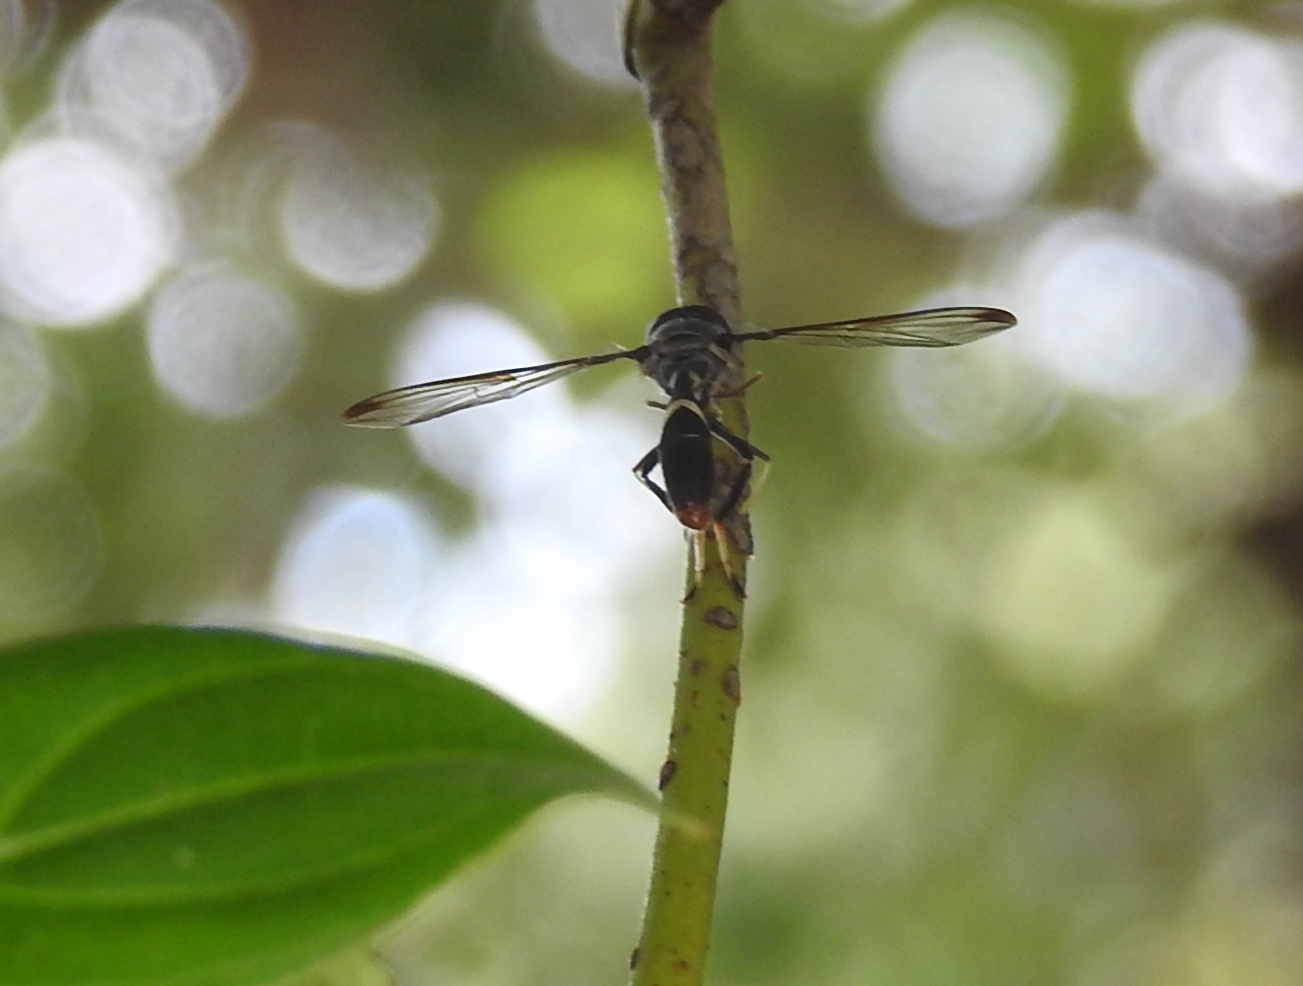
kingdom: Animalia
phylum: Arthropoda
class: Insecta
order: Diptera
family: Syrphidae
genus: Mimocalla
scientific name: Mimocalla willistoni
